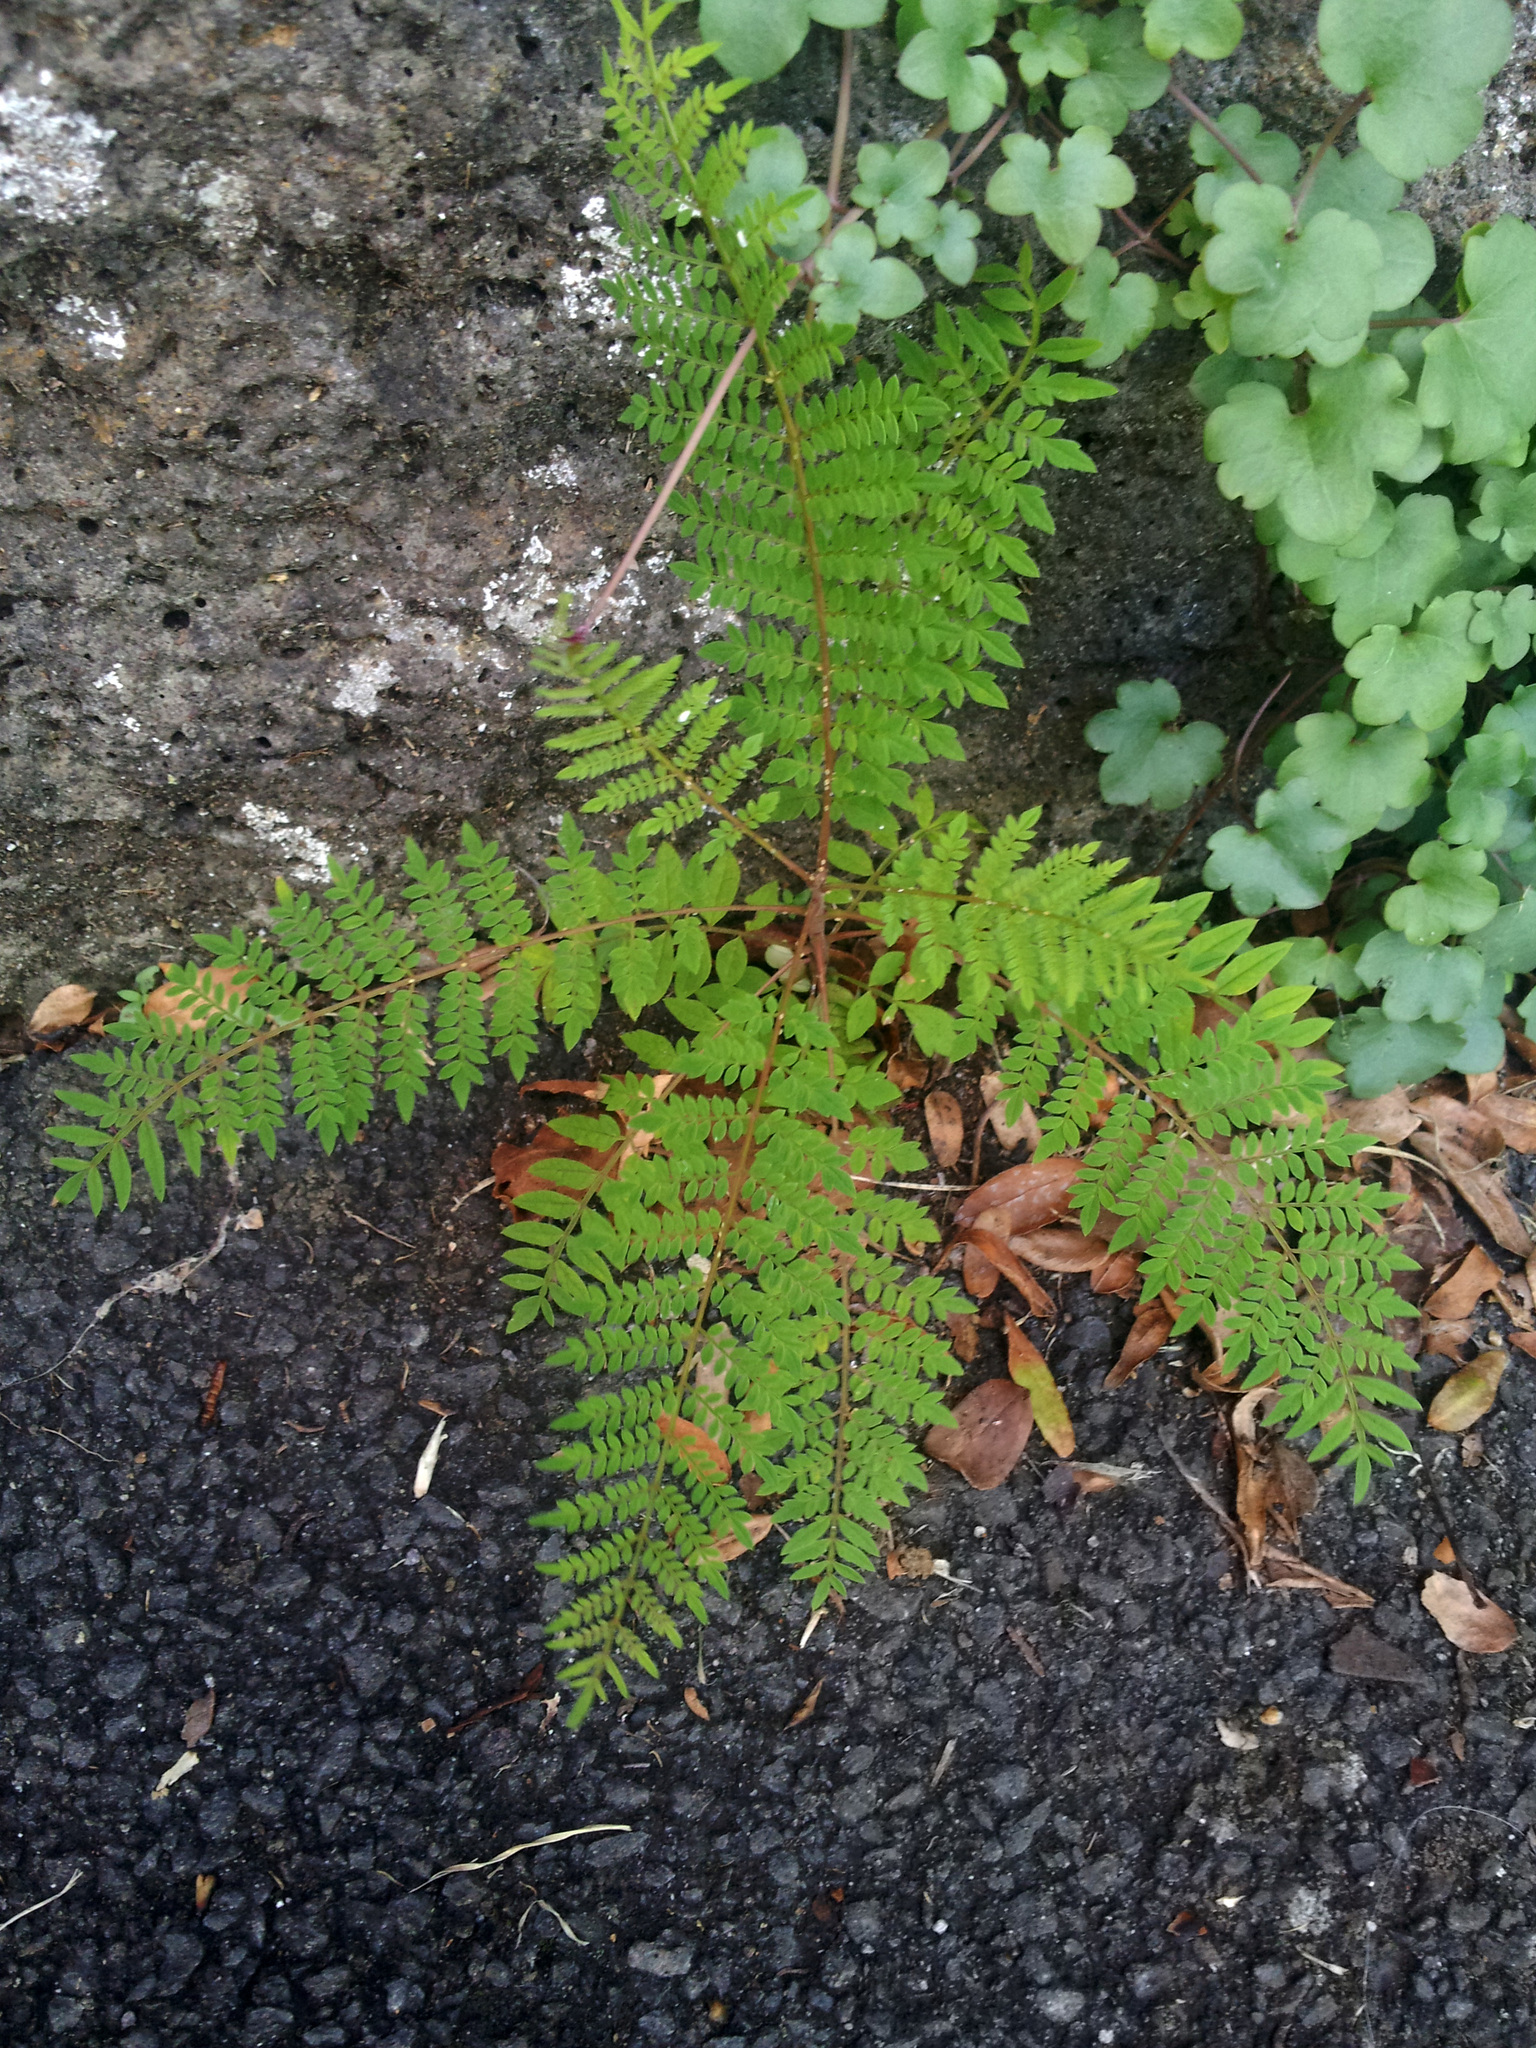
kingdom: Plantae
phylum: Tracheophyta
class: Magnoliopsida
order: Lamiales
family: Bignoniaceae
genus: Jacaranda
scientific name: Jacaranda mimosifolia
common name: Black poui
